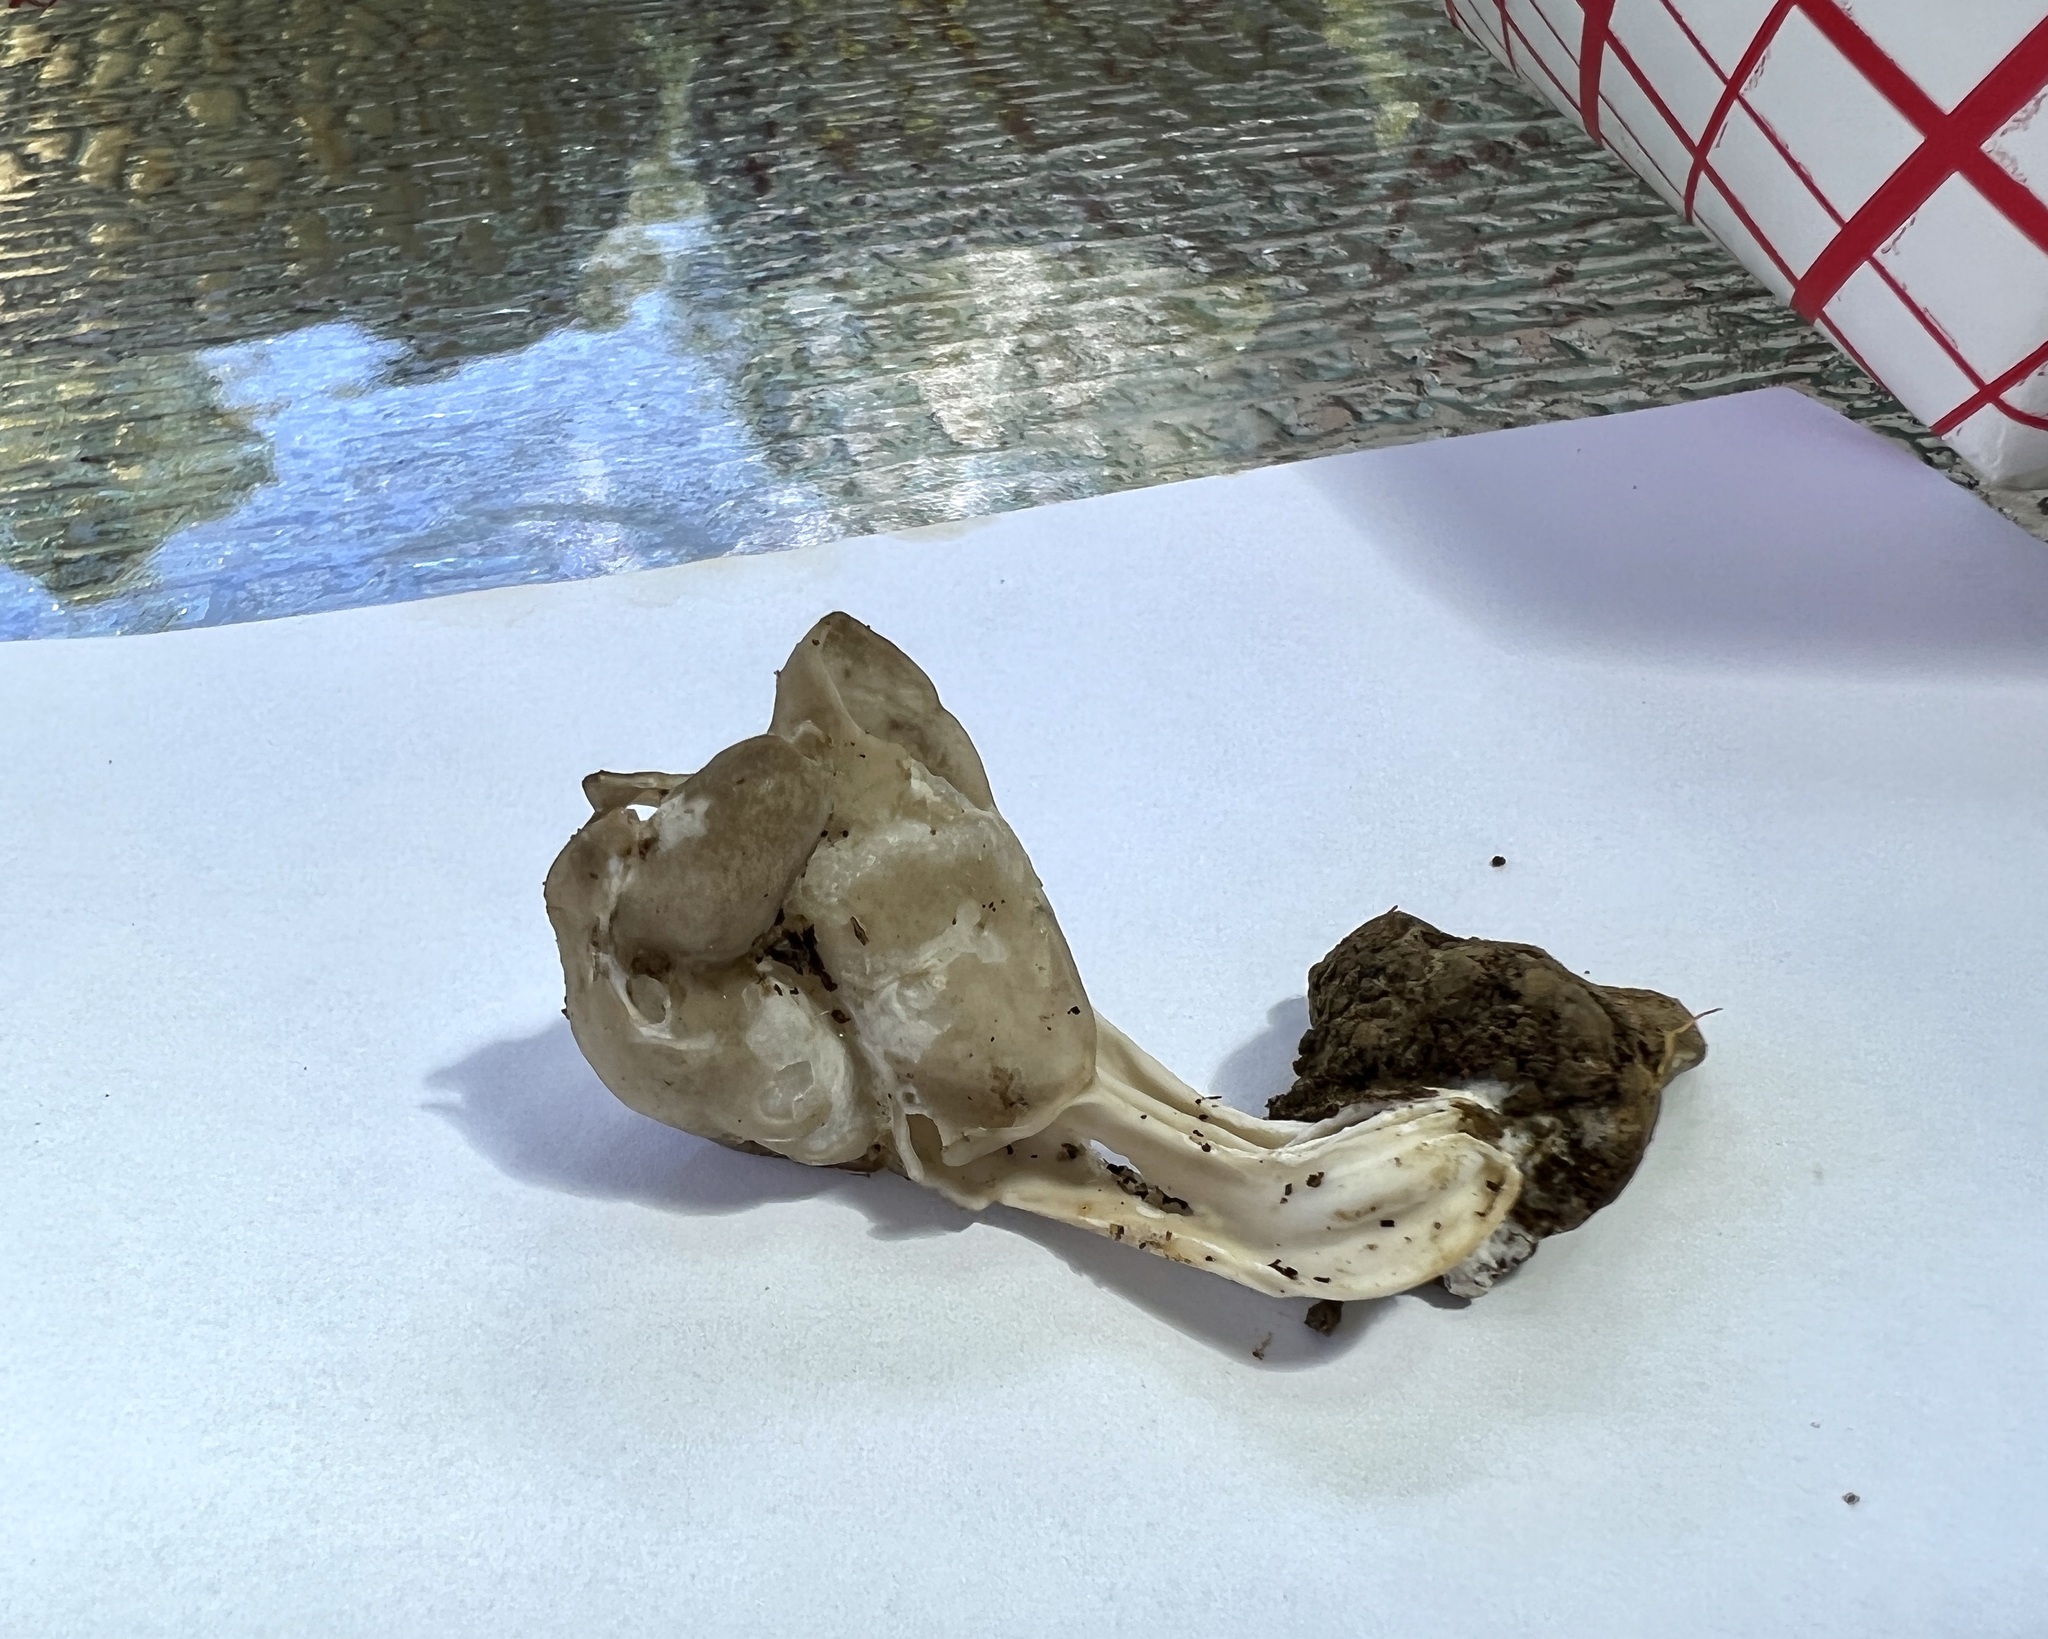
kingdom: Fungi
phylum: Ascomycota
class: Pezizomycetes
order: Pezizales
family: Helvellaceae
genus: Helvella
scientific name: Helvella lacunosa
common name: Elfin saddle
